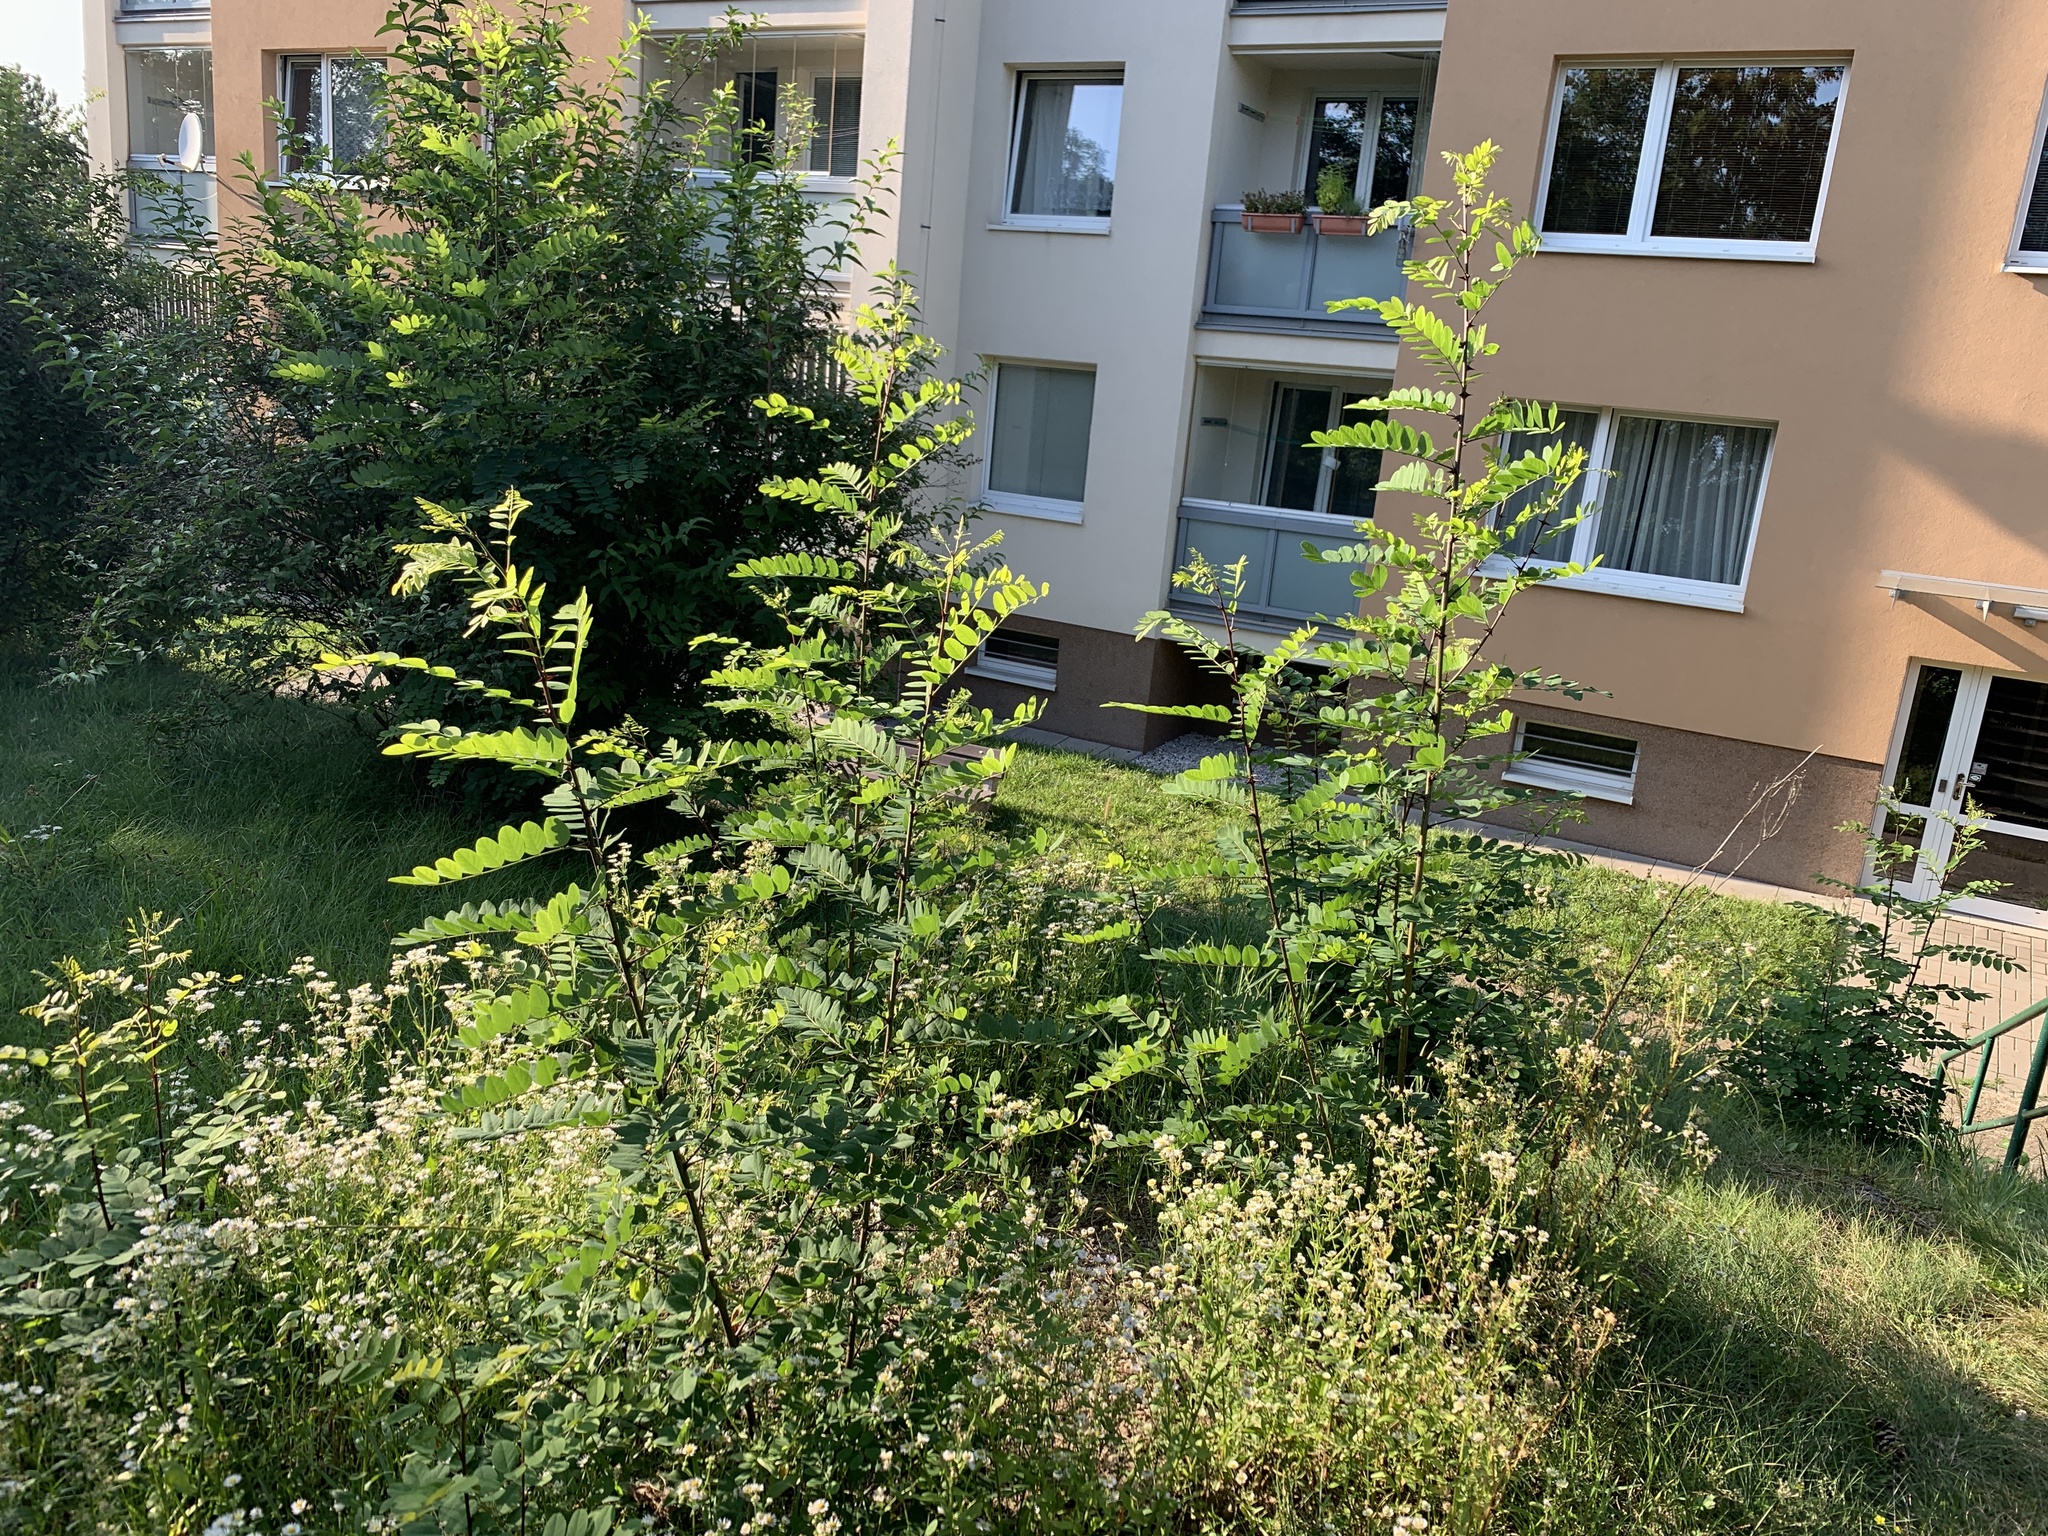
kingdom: Plantae
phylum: Tracheophyta
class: Magnoliopsida
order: Fabales
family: Fabaceae
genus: Robinia
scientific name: Robinia pseudoacacia
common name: Black locust
